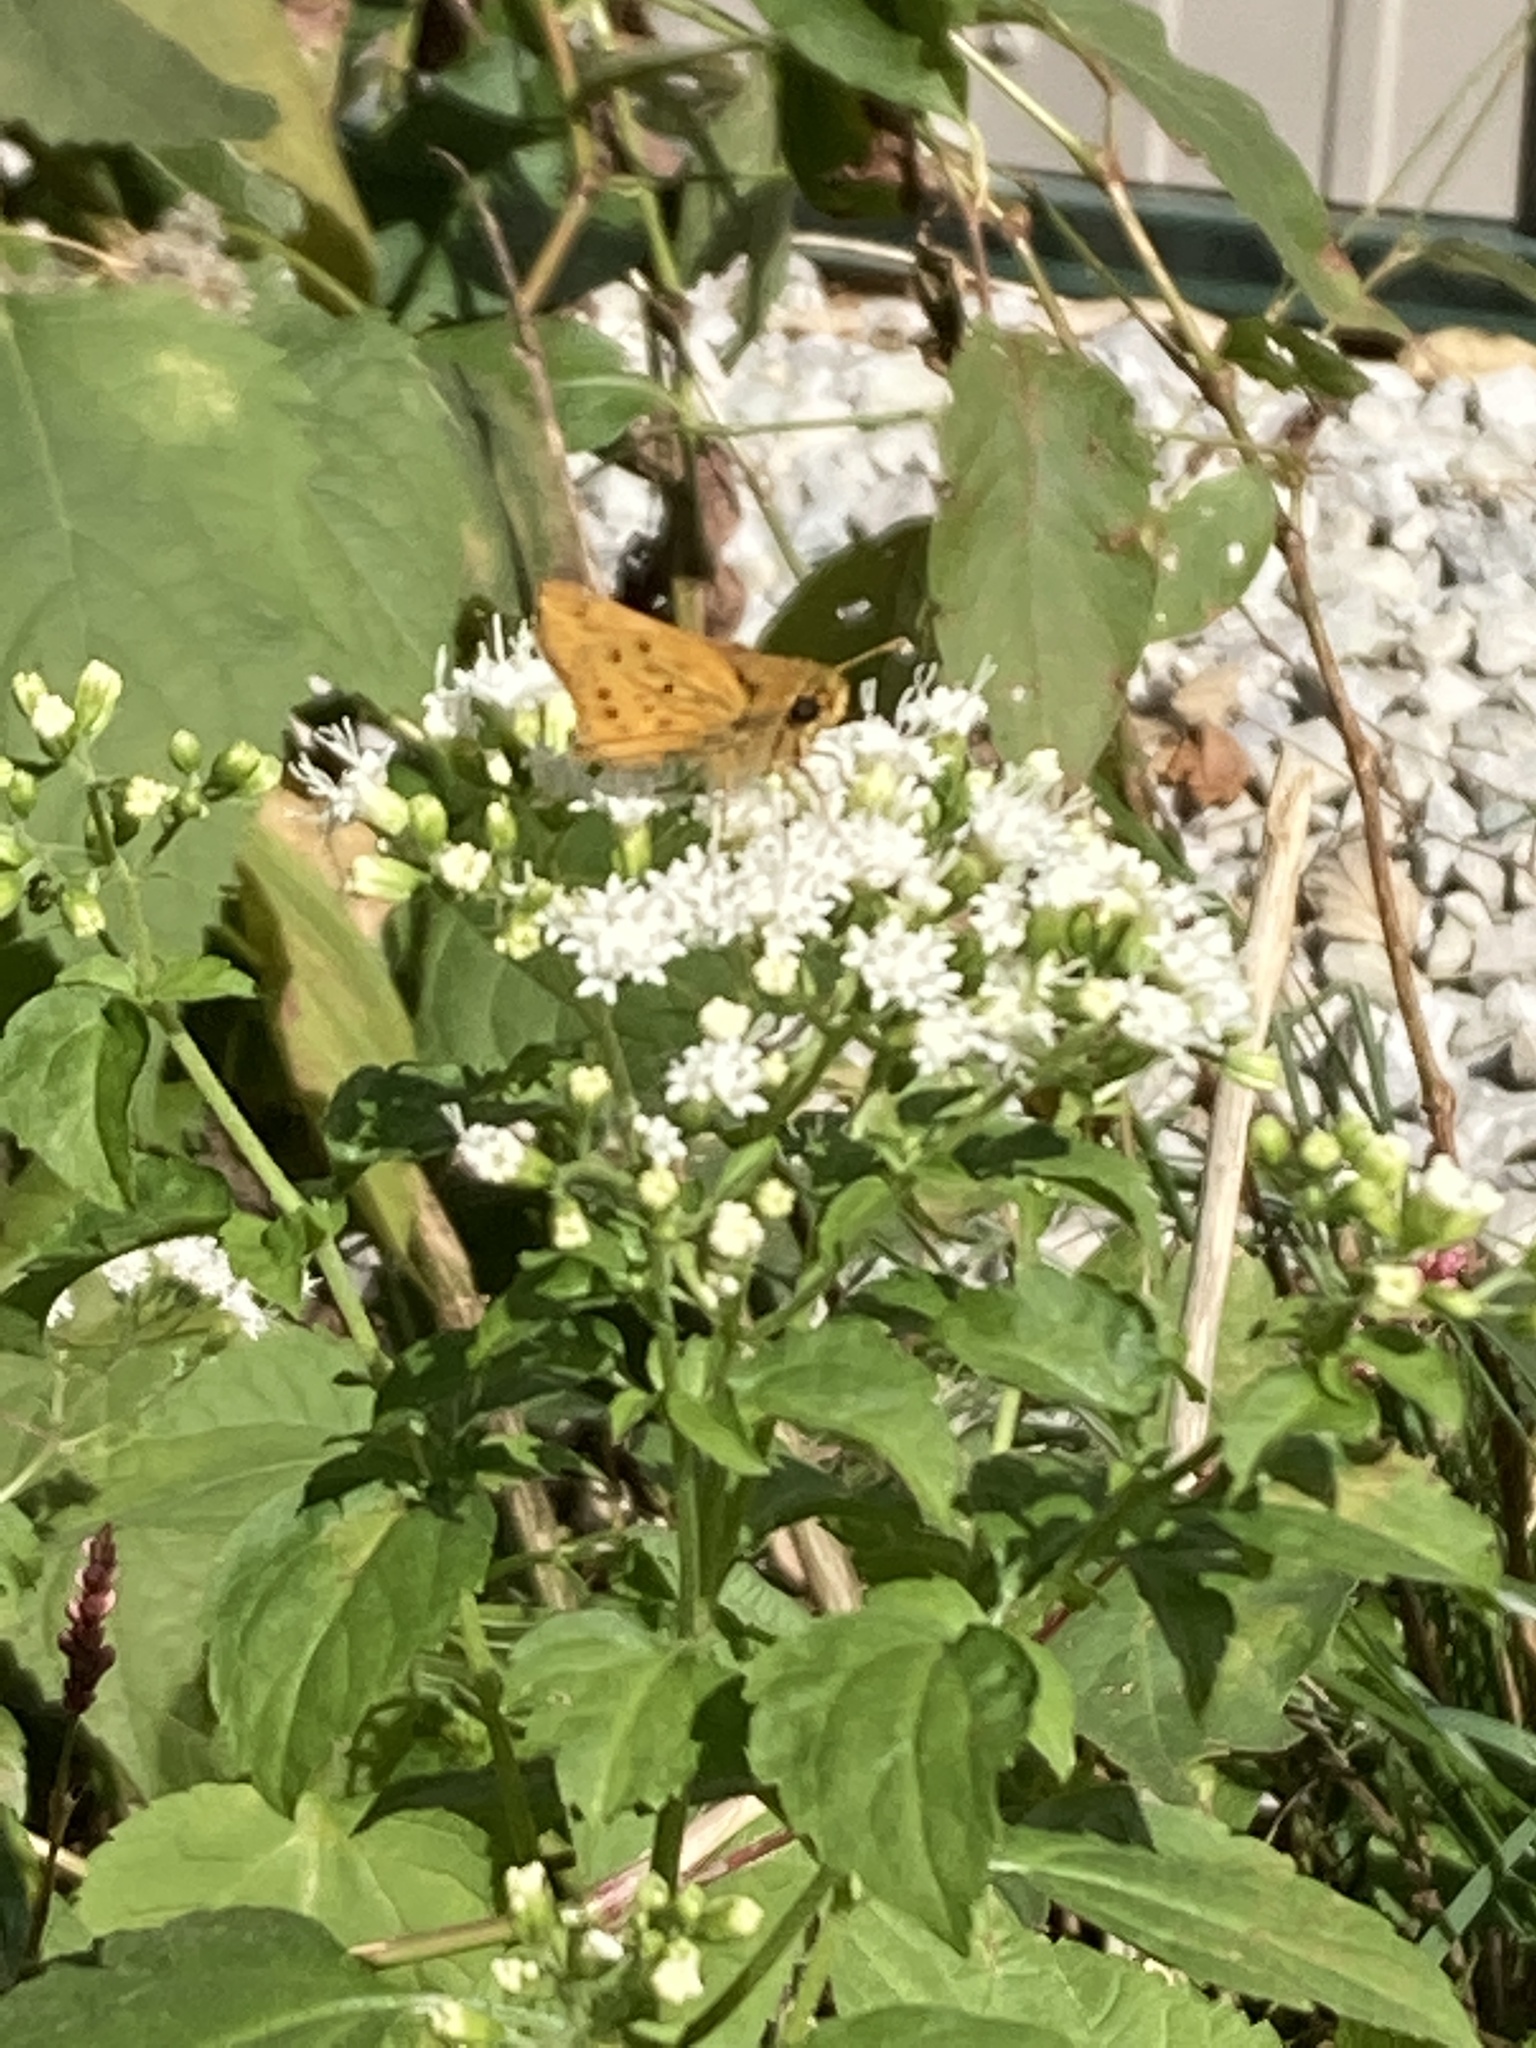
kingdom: Animalia
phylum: Arthropoda
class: Insecta
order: Lepidoptera
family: Hesperiidae
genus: Hylephila
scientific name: Hylephila phyleus
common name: Fiery skipper
